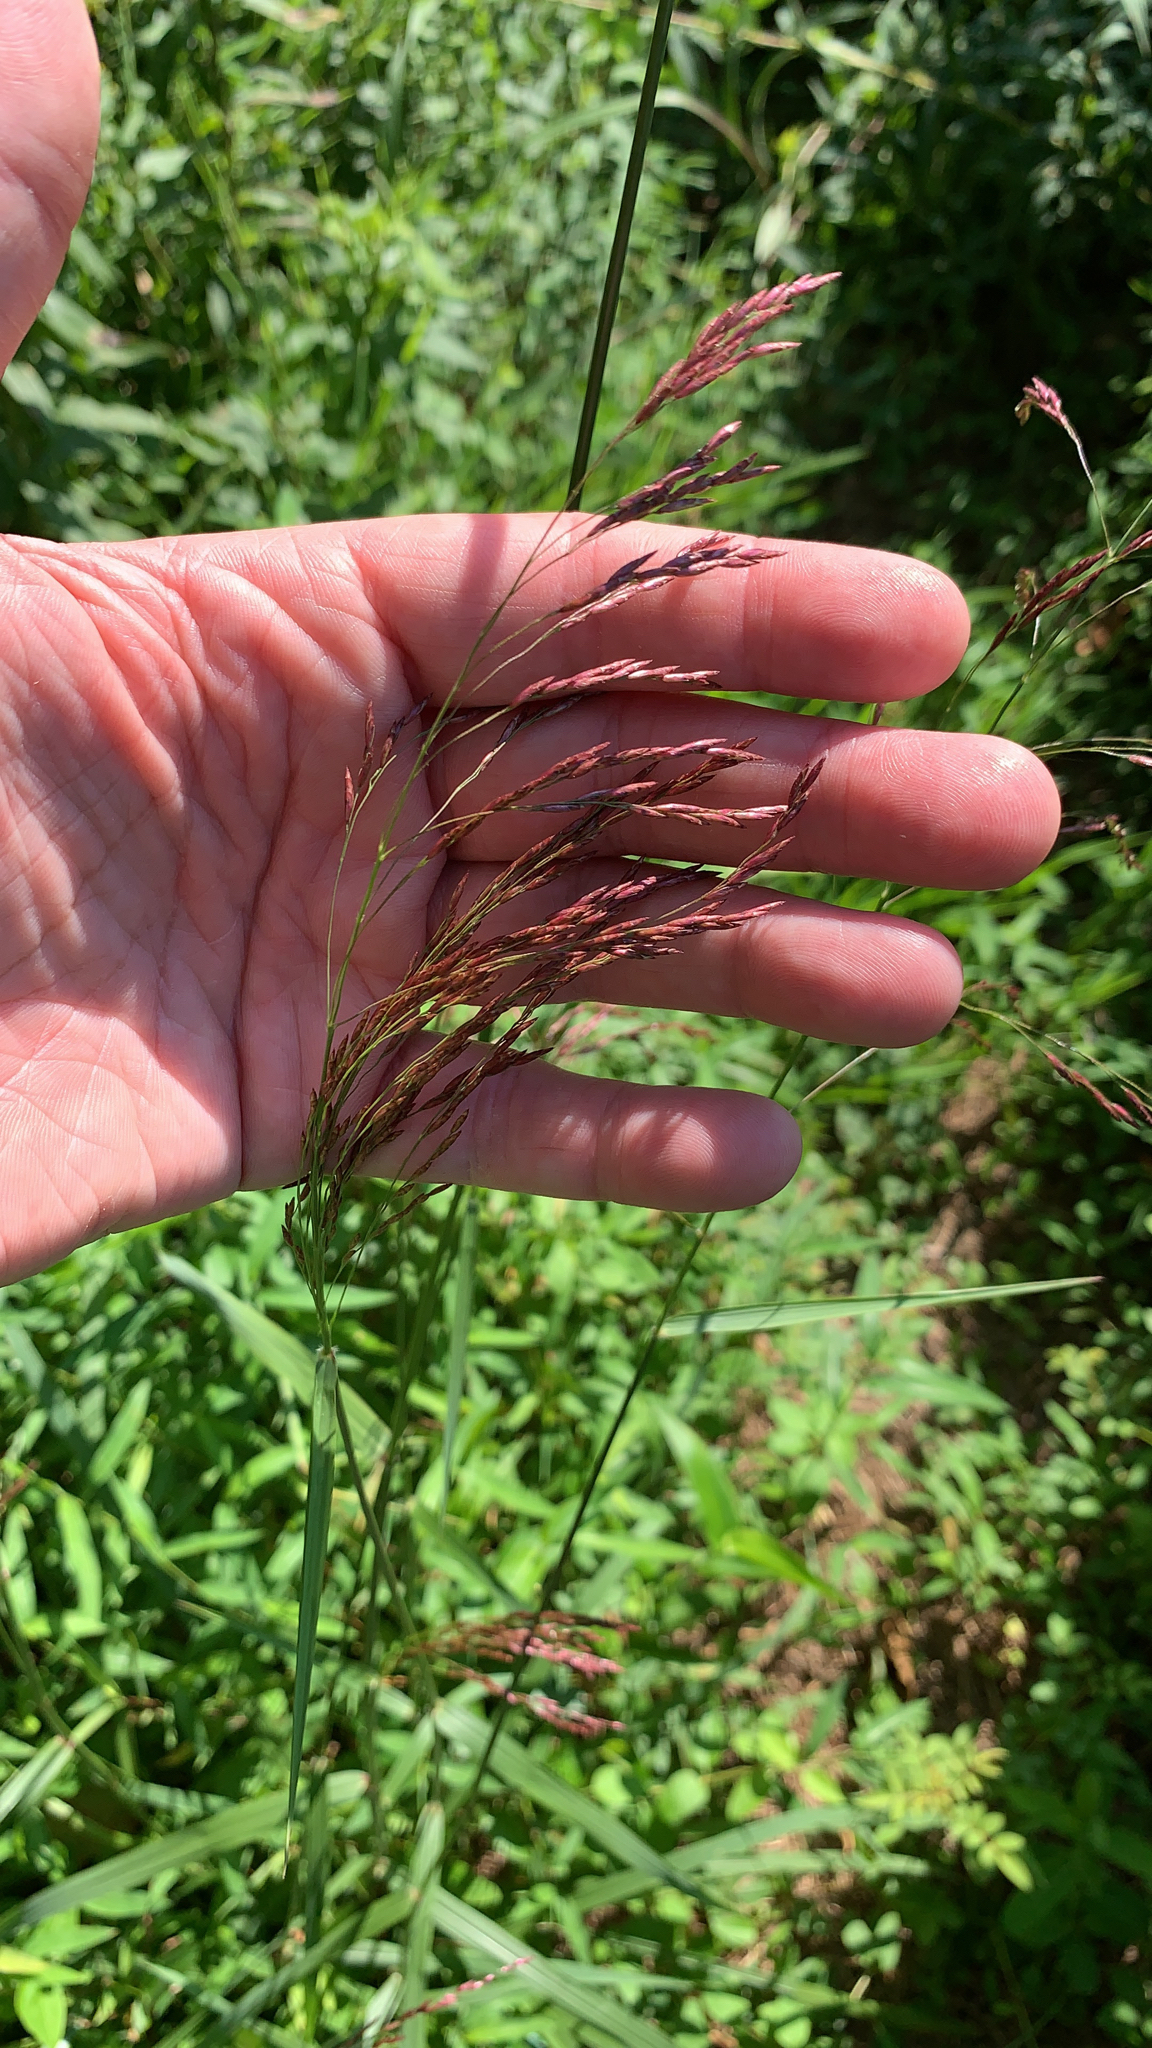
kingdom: Plantae
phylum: Tracheophyta
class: Liliopsida
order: Poales
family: Poaceae
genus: Tridens
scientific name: Tridens flavus
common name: Purpletop
